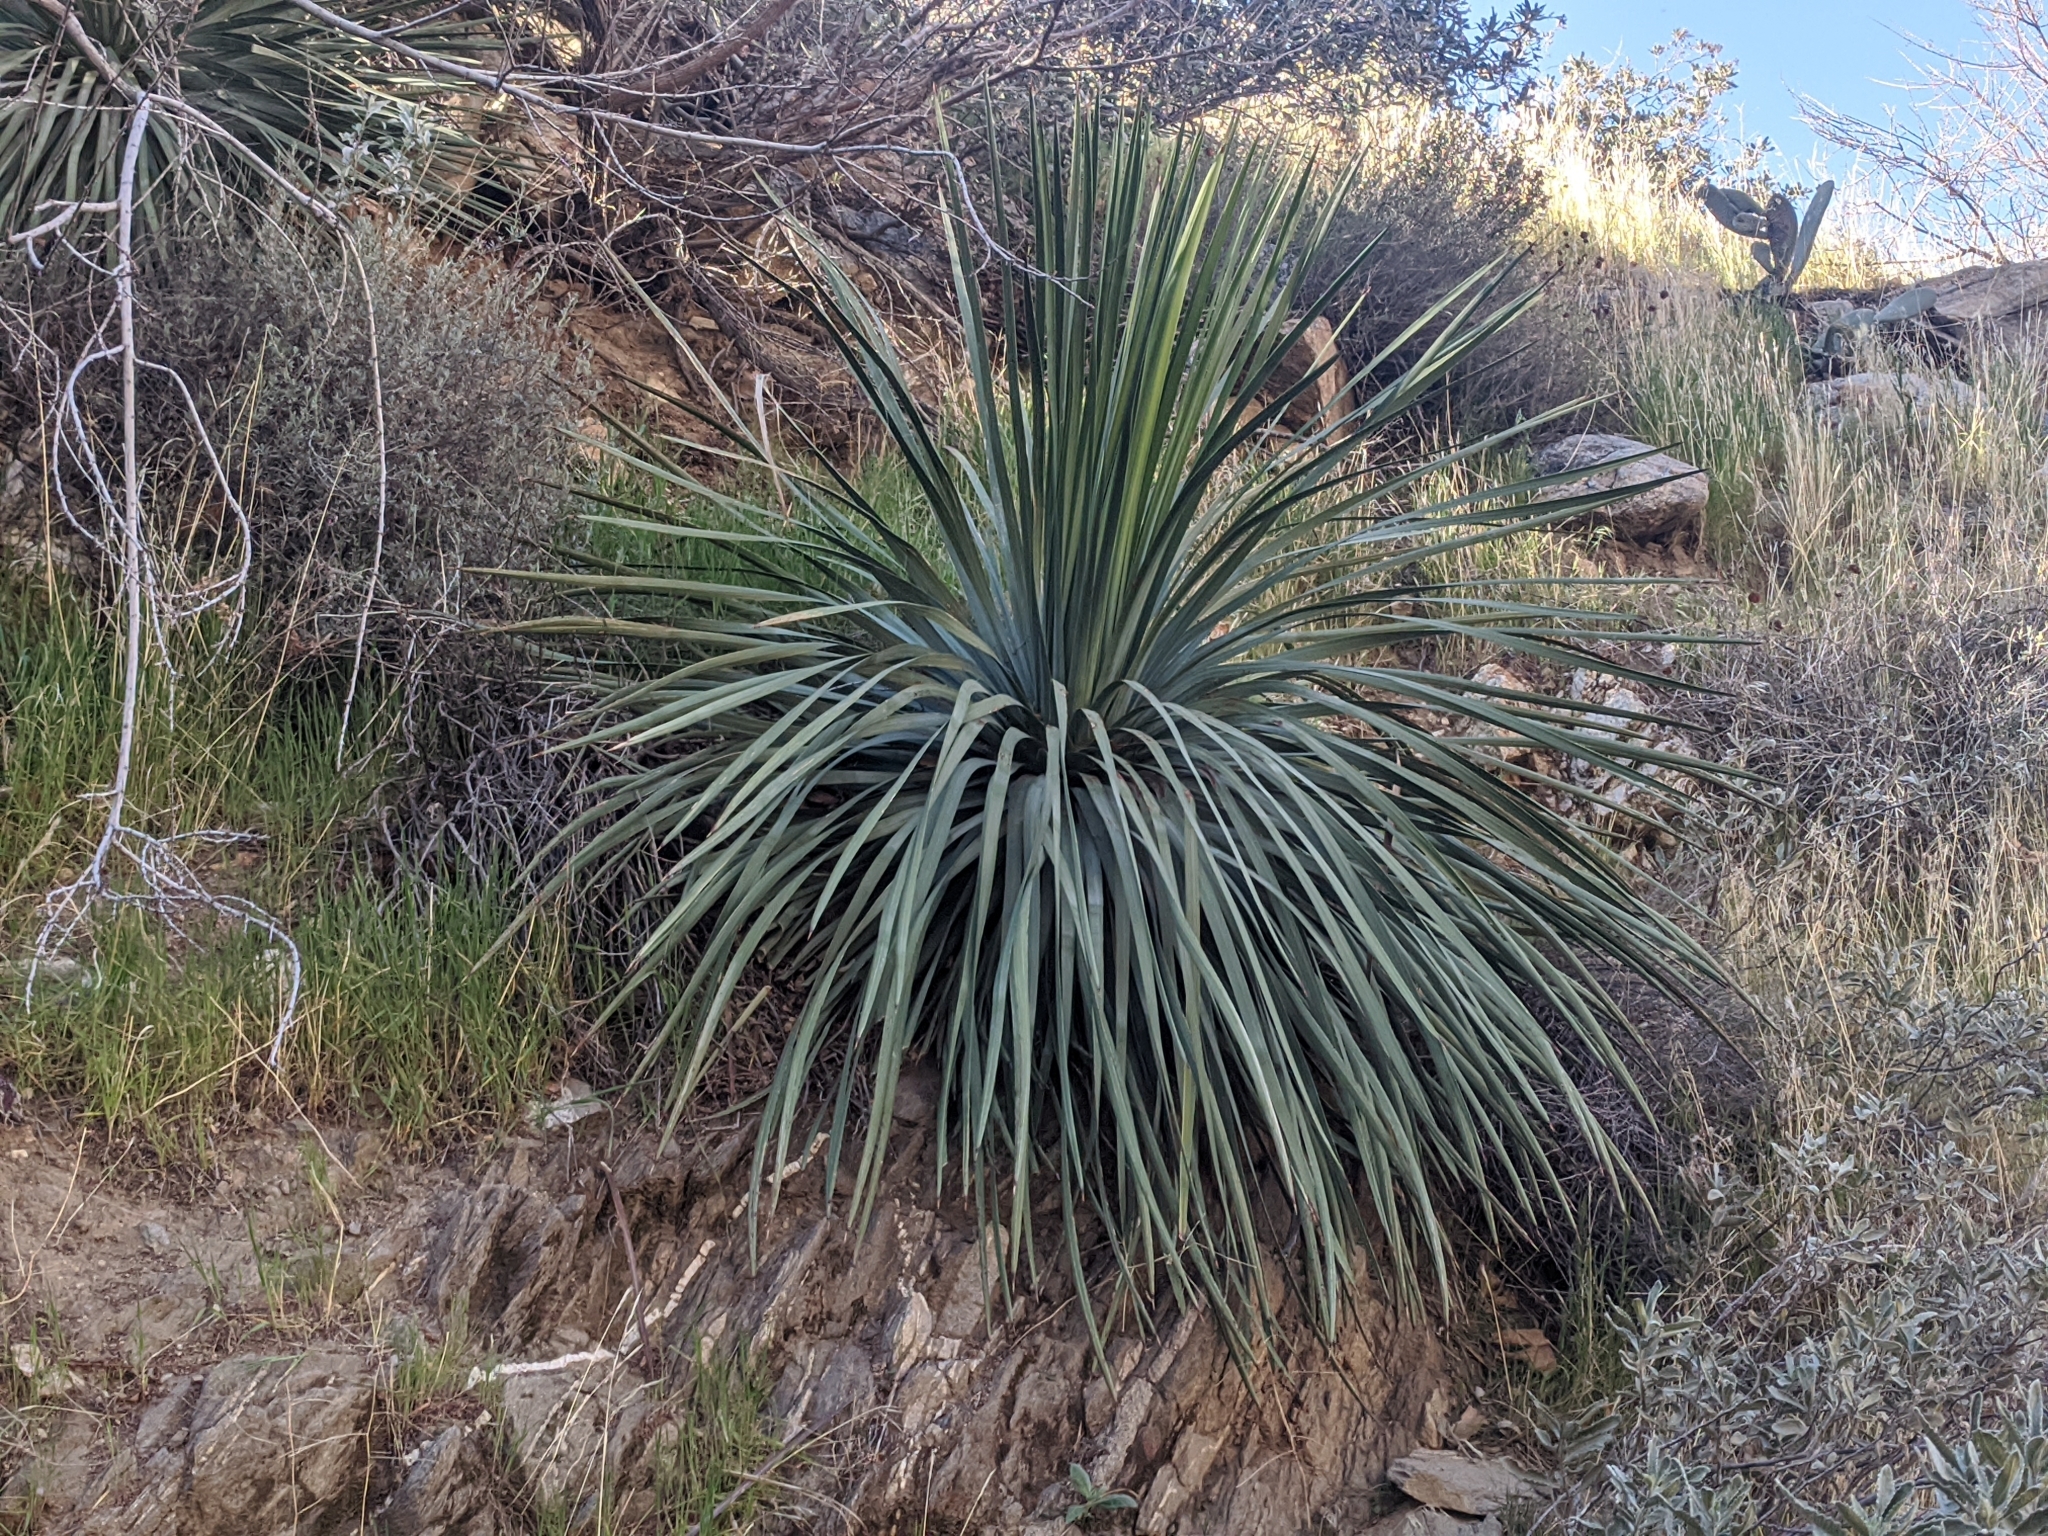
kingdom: Plantae
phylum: Tracheophyta
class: Liliopsida
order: Asparagales
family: Asparagaceae
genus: Hesperoyucca
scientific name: Hesperoyucca whipplei
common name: Our lord's-candle
